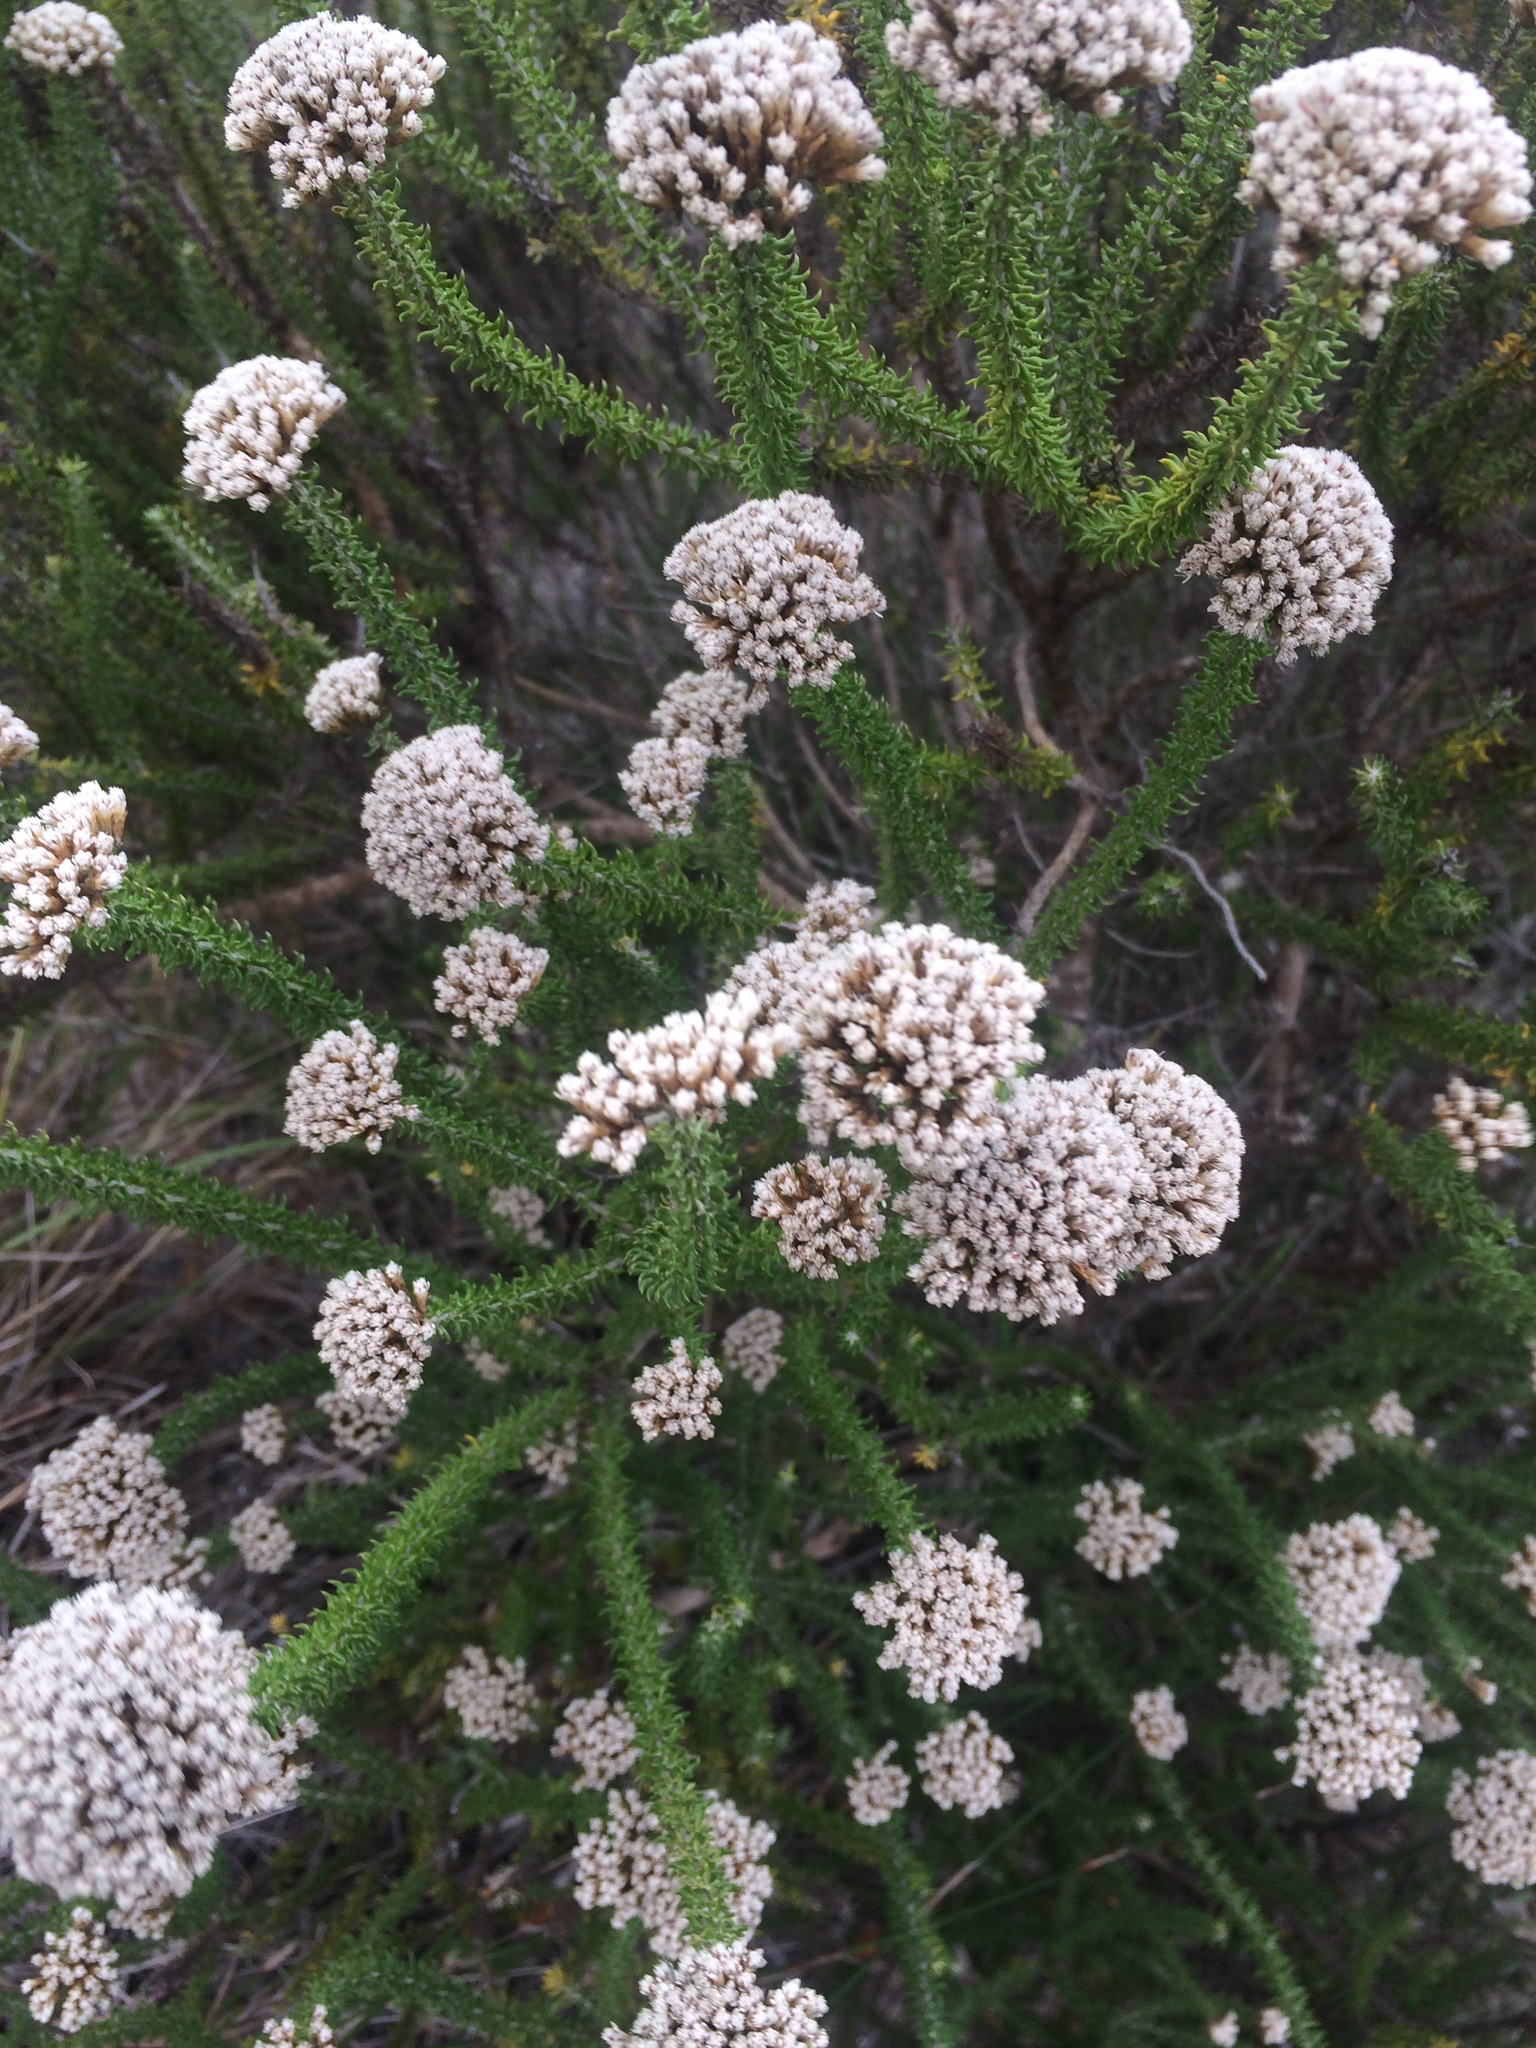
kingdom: Plantae
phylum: Tracheophyta
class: Magnoliopsida
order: Asterales
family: Asteraceae
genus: Metalasia
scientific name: Metalasia muricata
